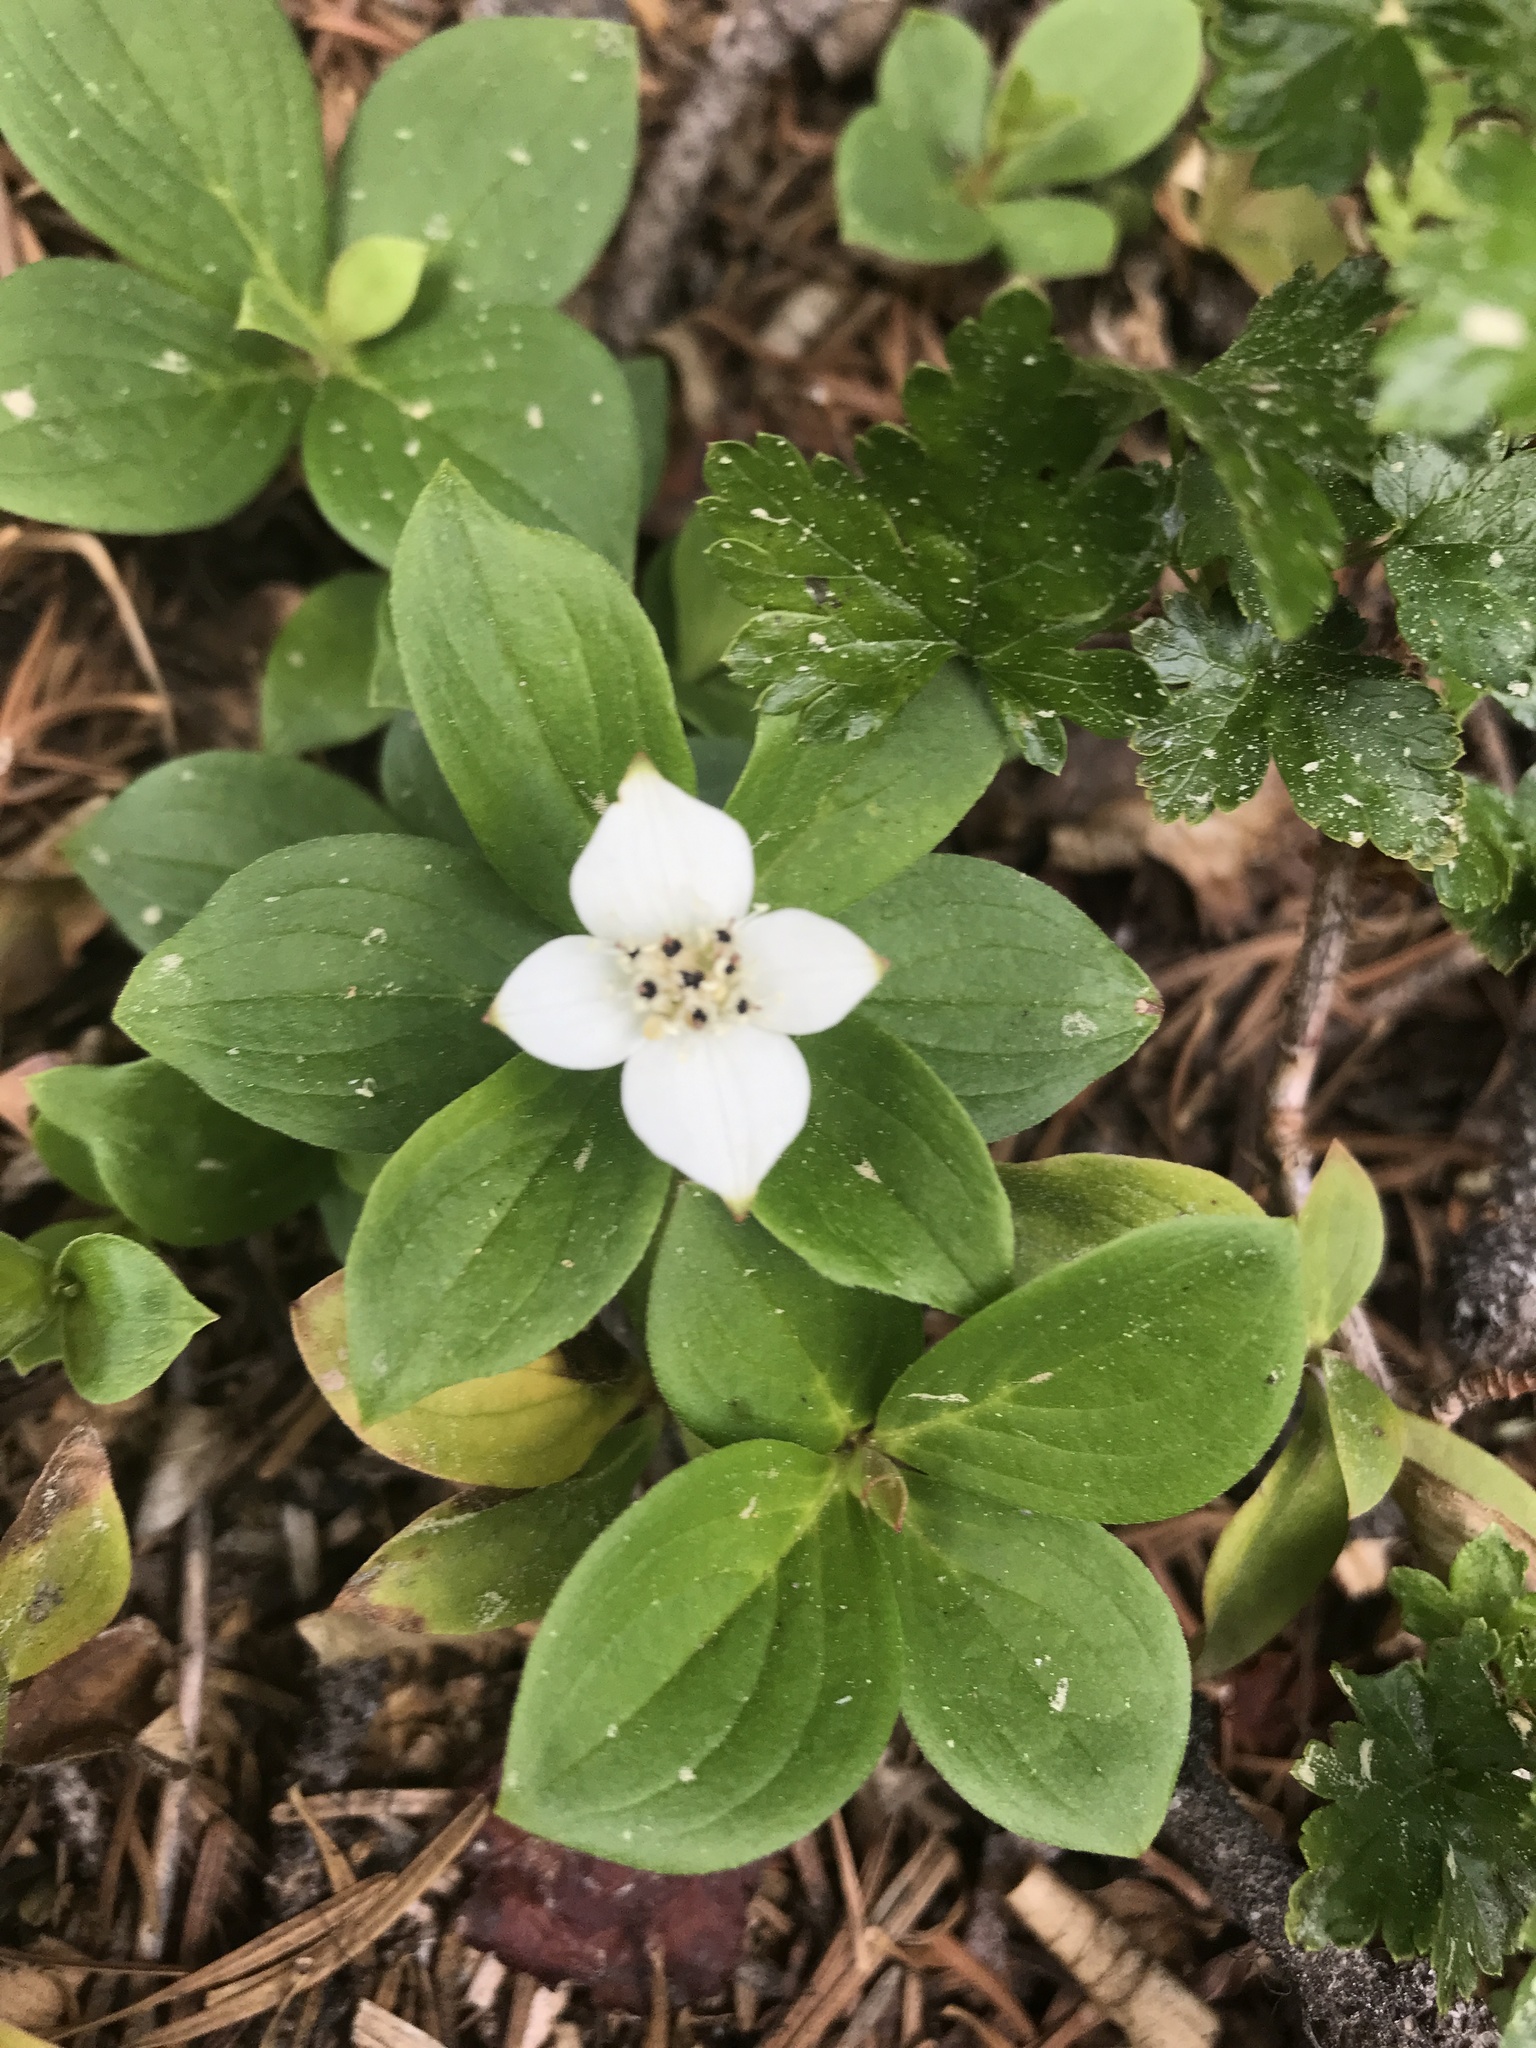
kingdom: Plantae
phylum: Tracheophyta
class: Magnoliopsida
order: Cornales
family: Cornaceae
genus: Cornus
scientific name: Cornus canadensis
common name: Creeping dogwood
